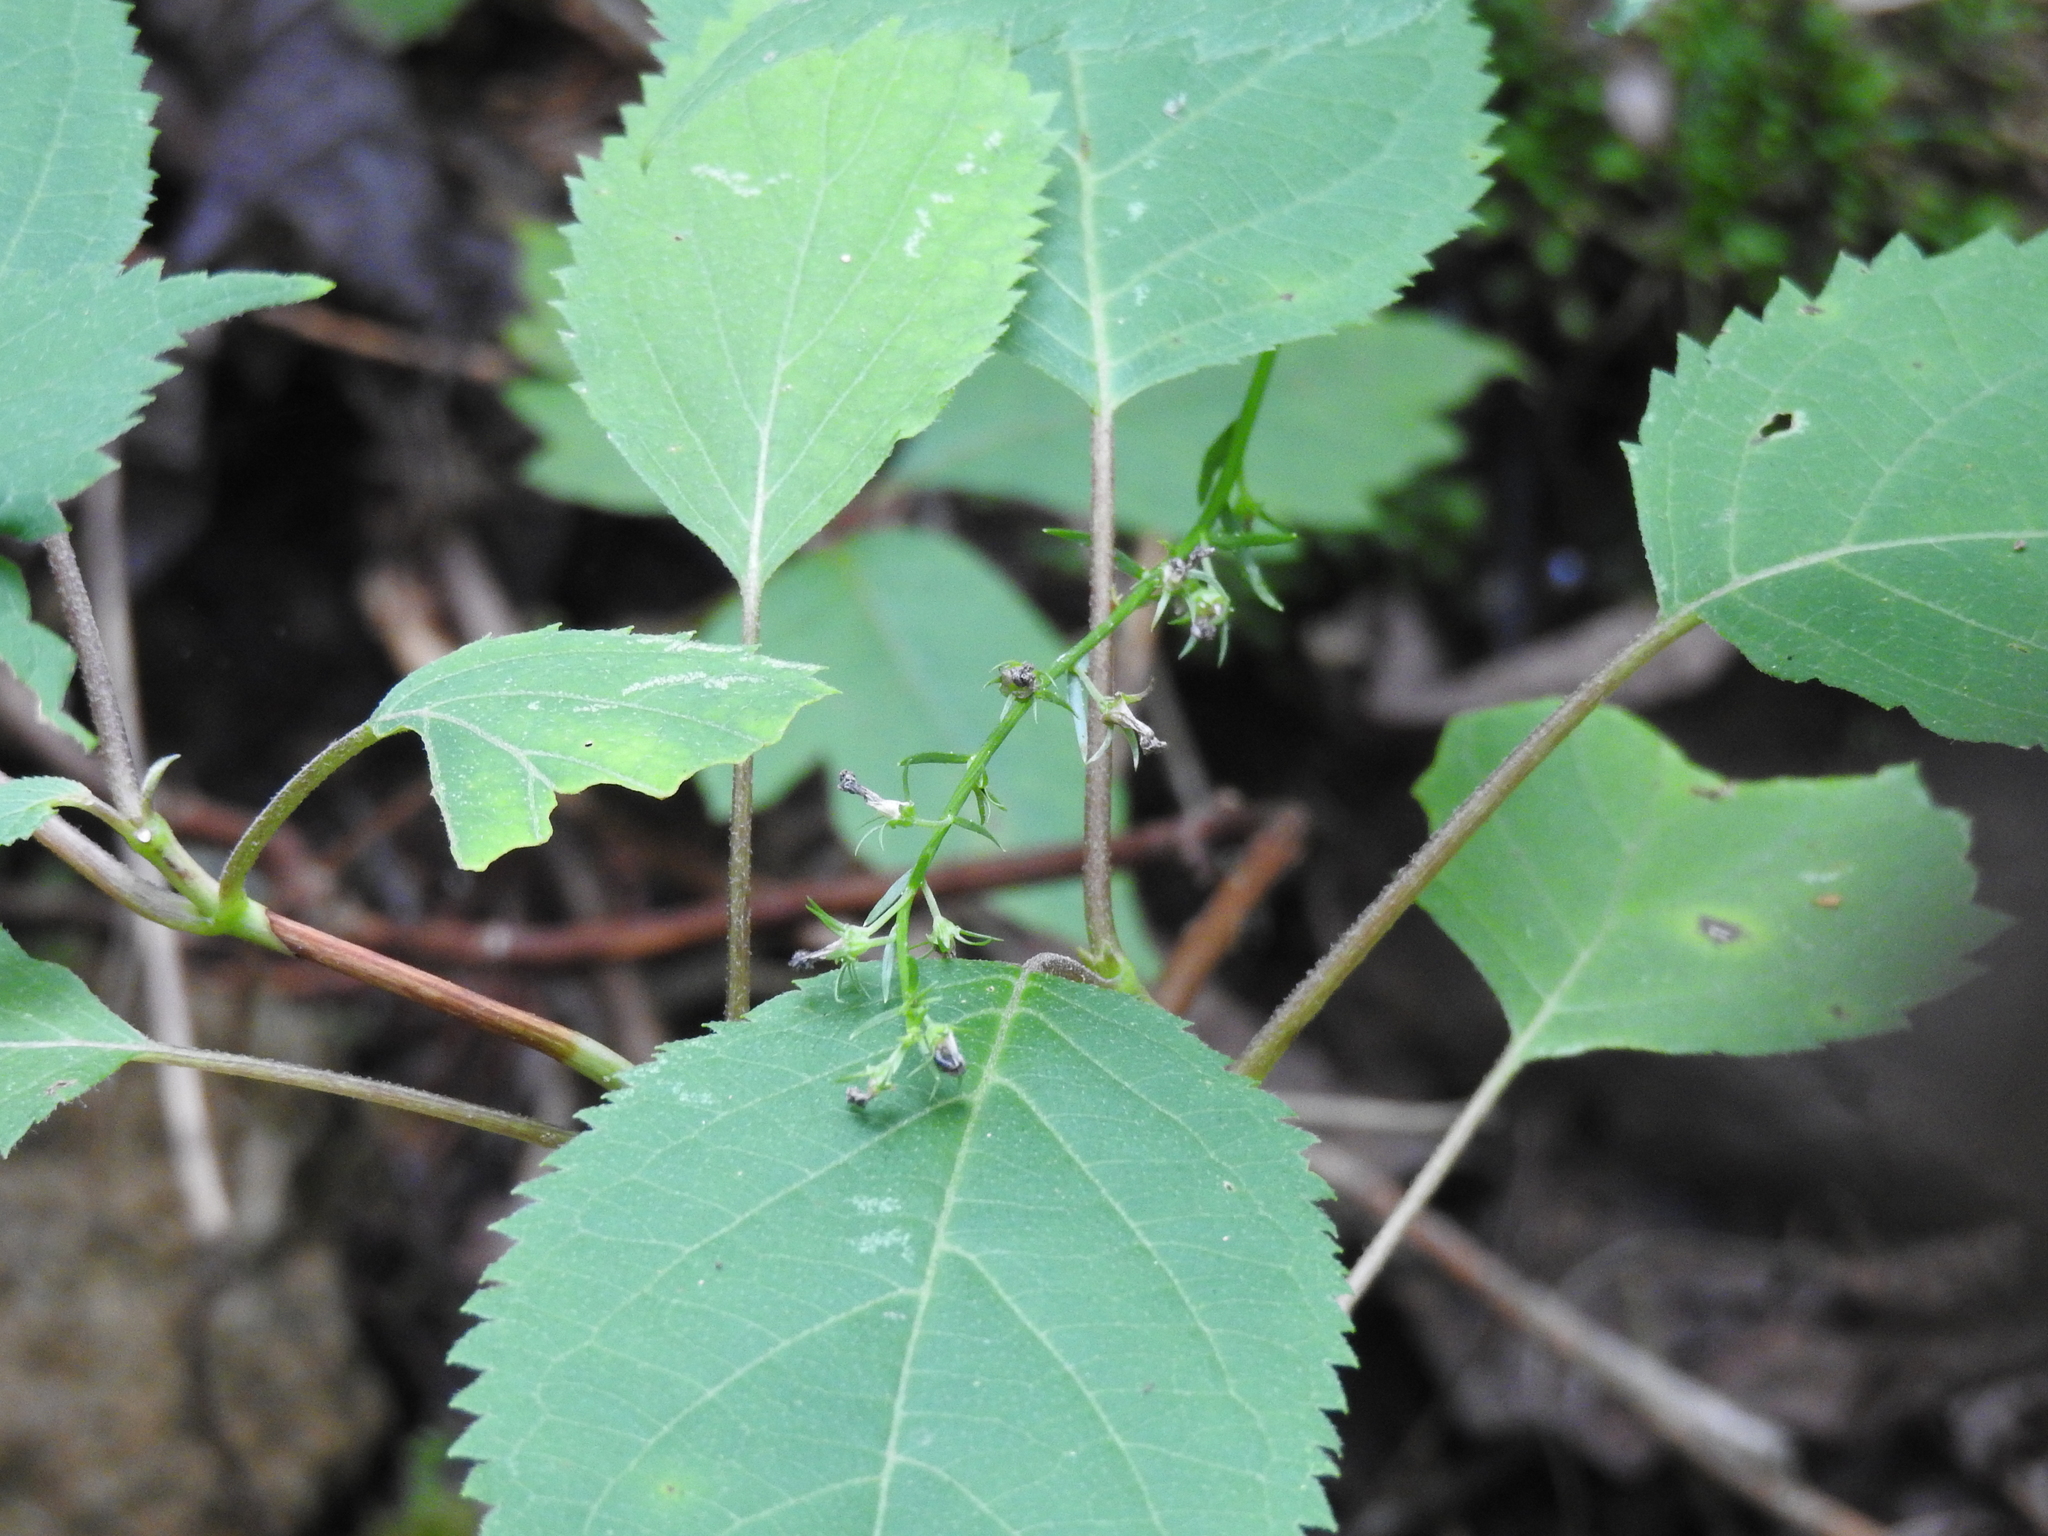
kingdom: Plantae
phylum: Tracheophyta
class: Magnoliopsida
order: Lamiales
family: Lamiaceae
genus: Collinsonia
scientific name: Collinsonia canadensis
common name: Northern horsebalm
